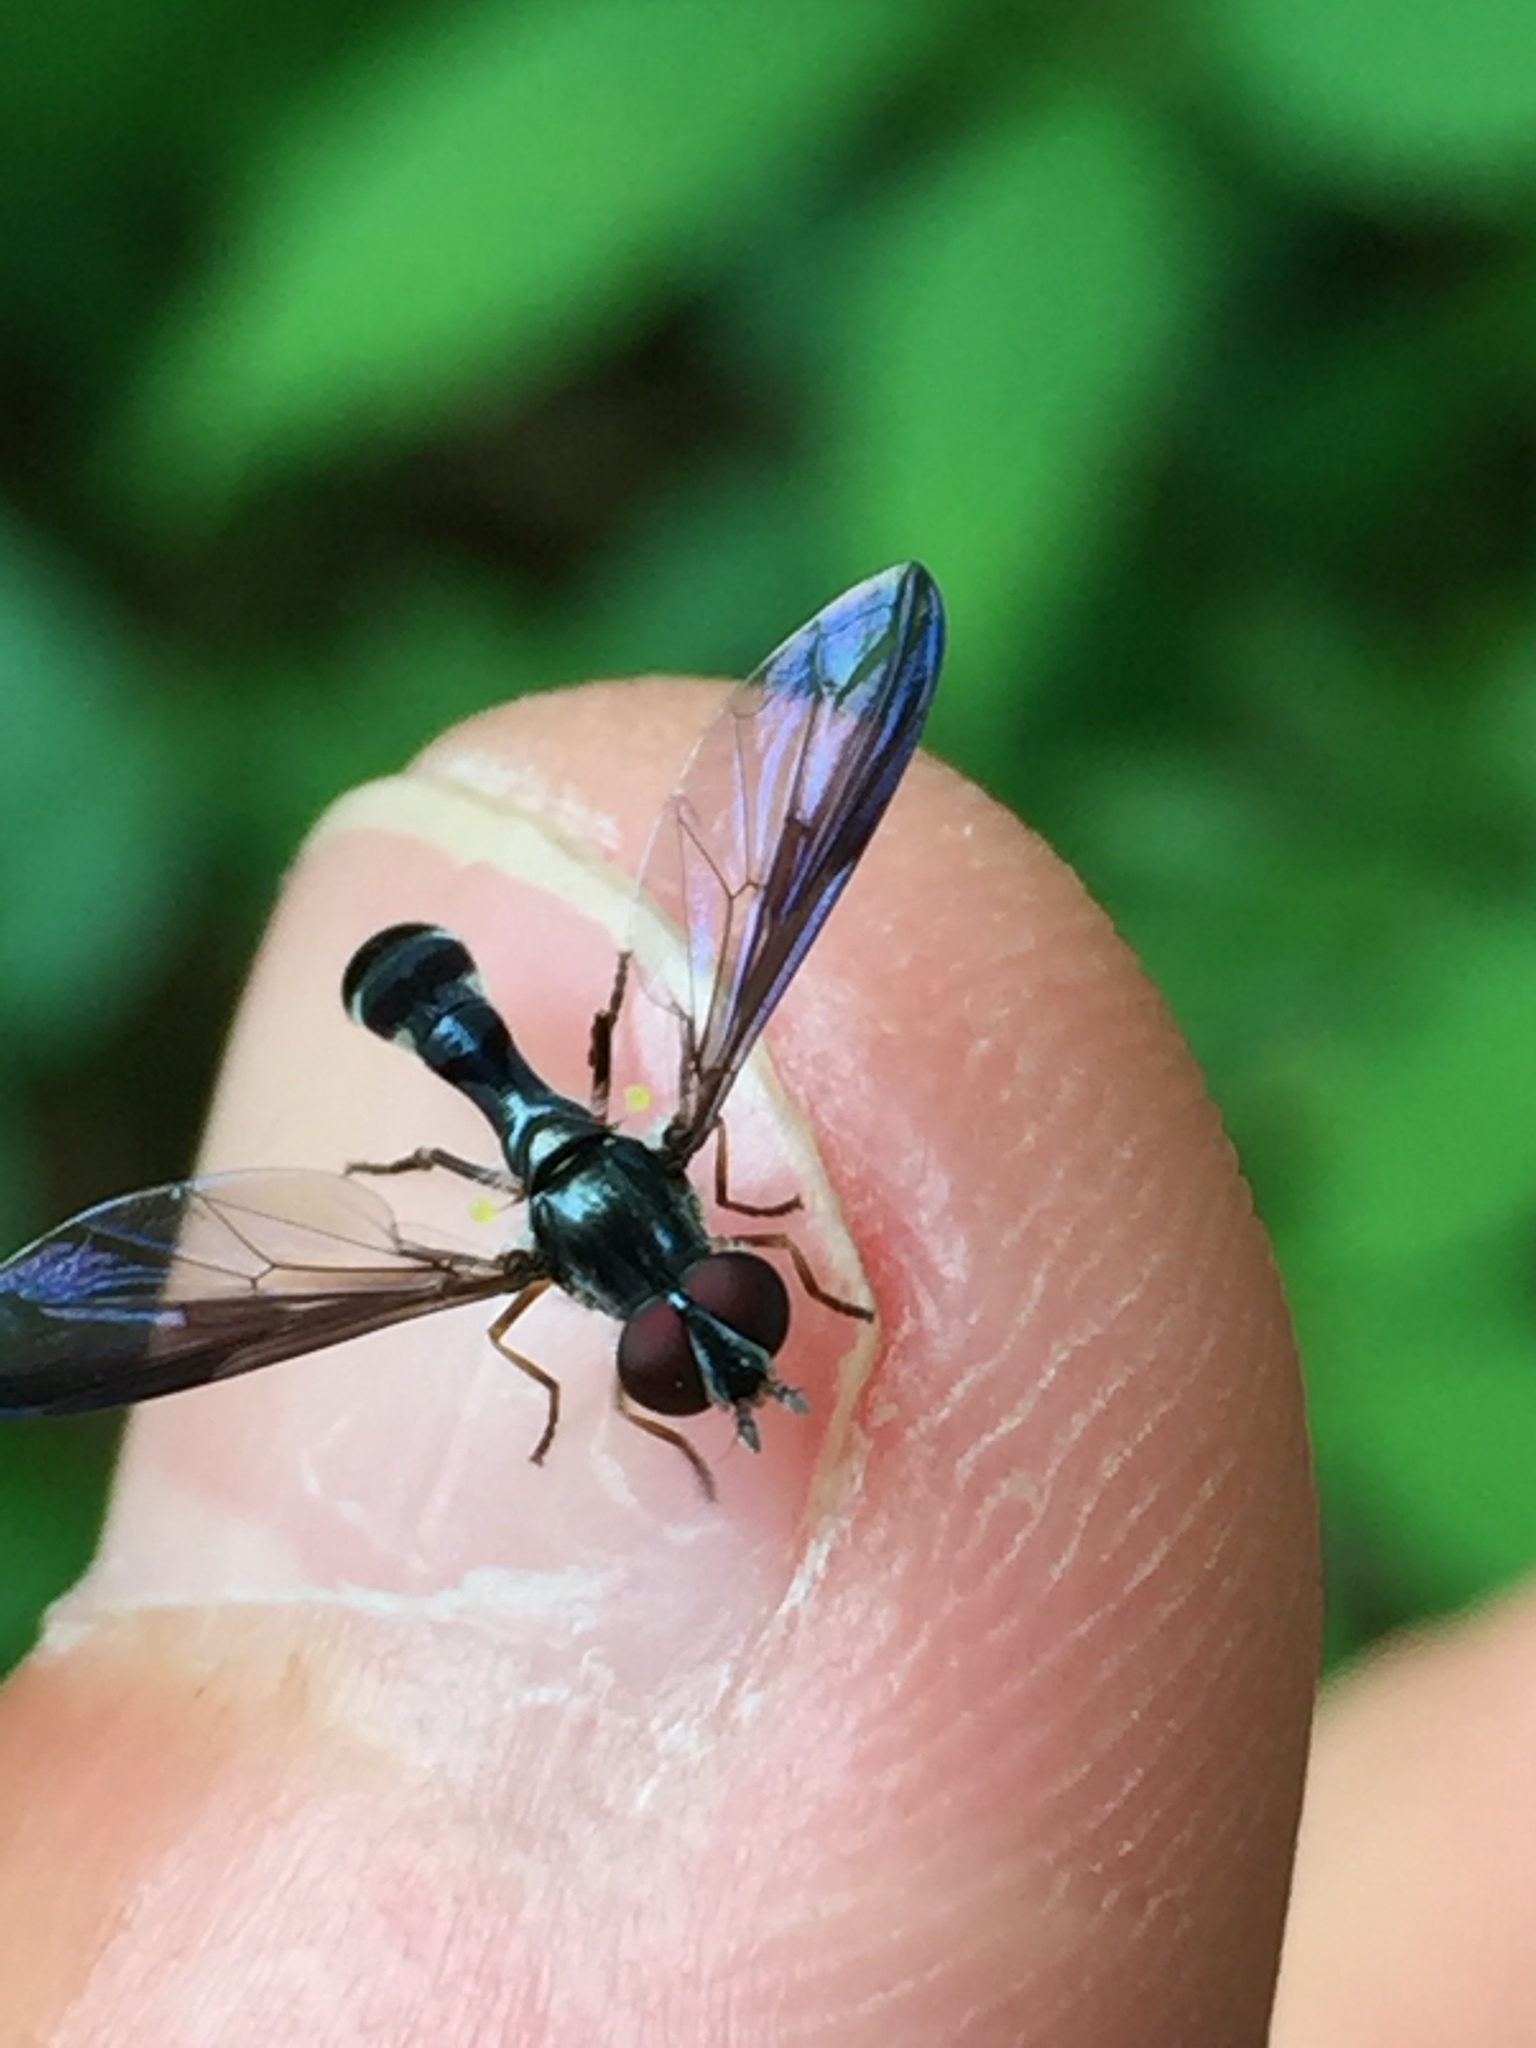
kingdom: Animalia
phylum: Arthropoda
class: Insecta
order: Diptera
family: Syrphidae
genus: Ocyptamus
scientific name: Ocyptamus costatus
